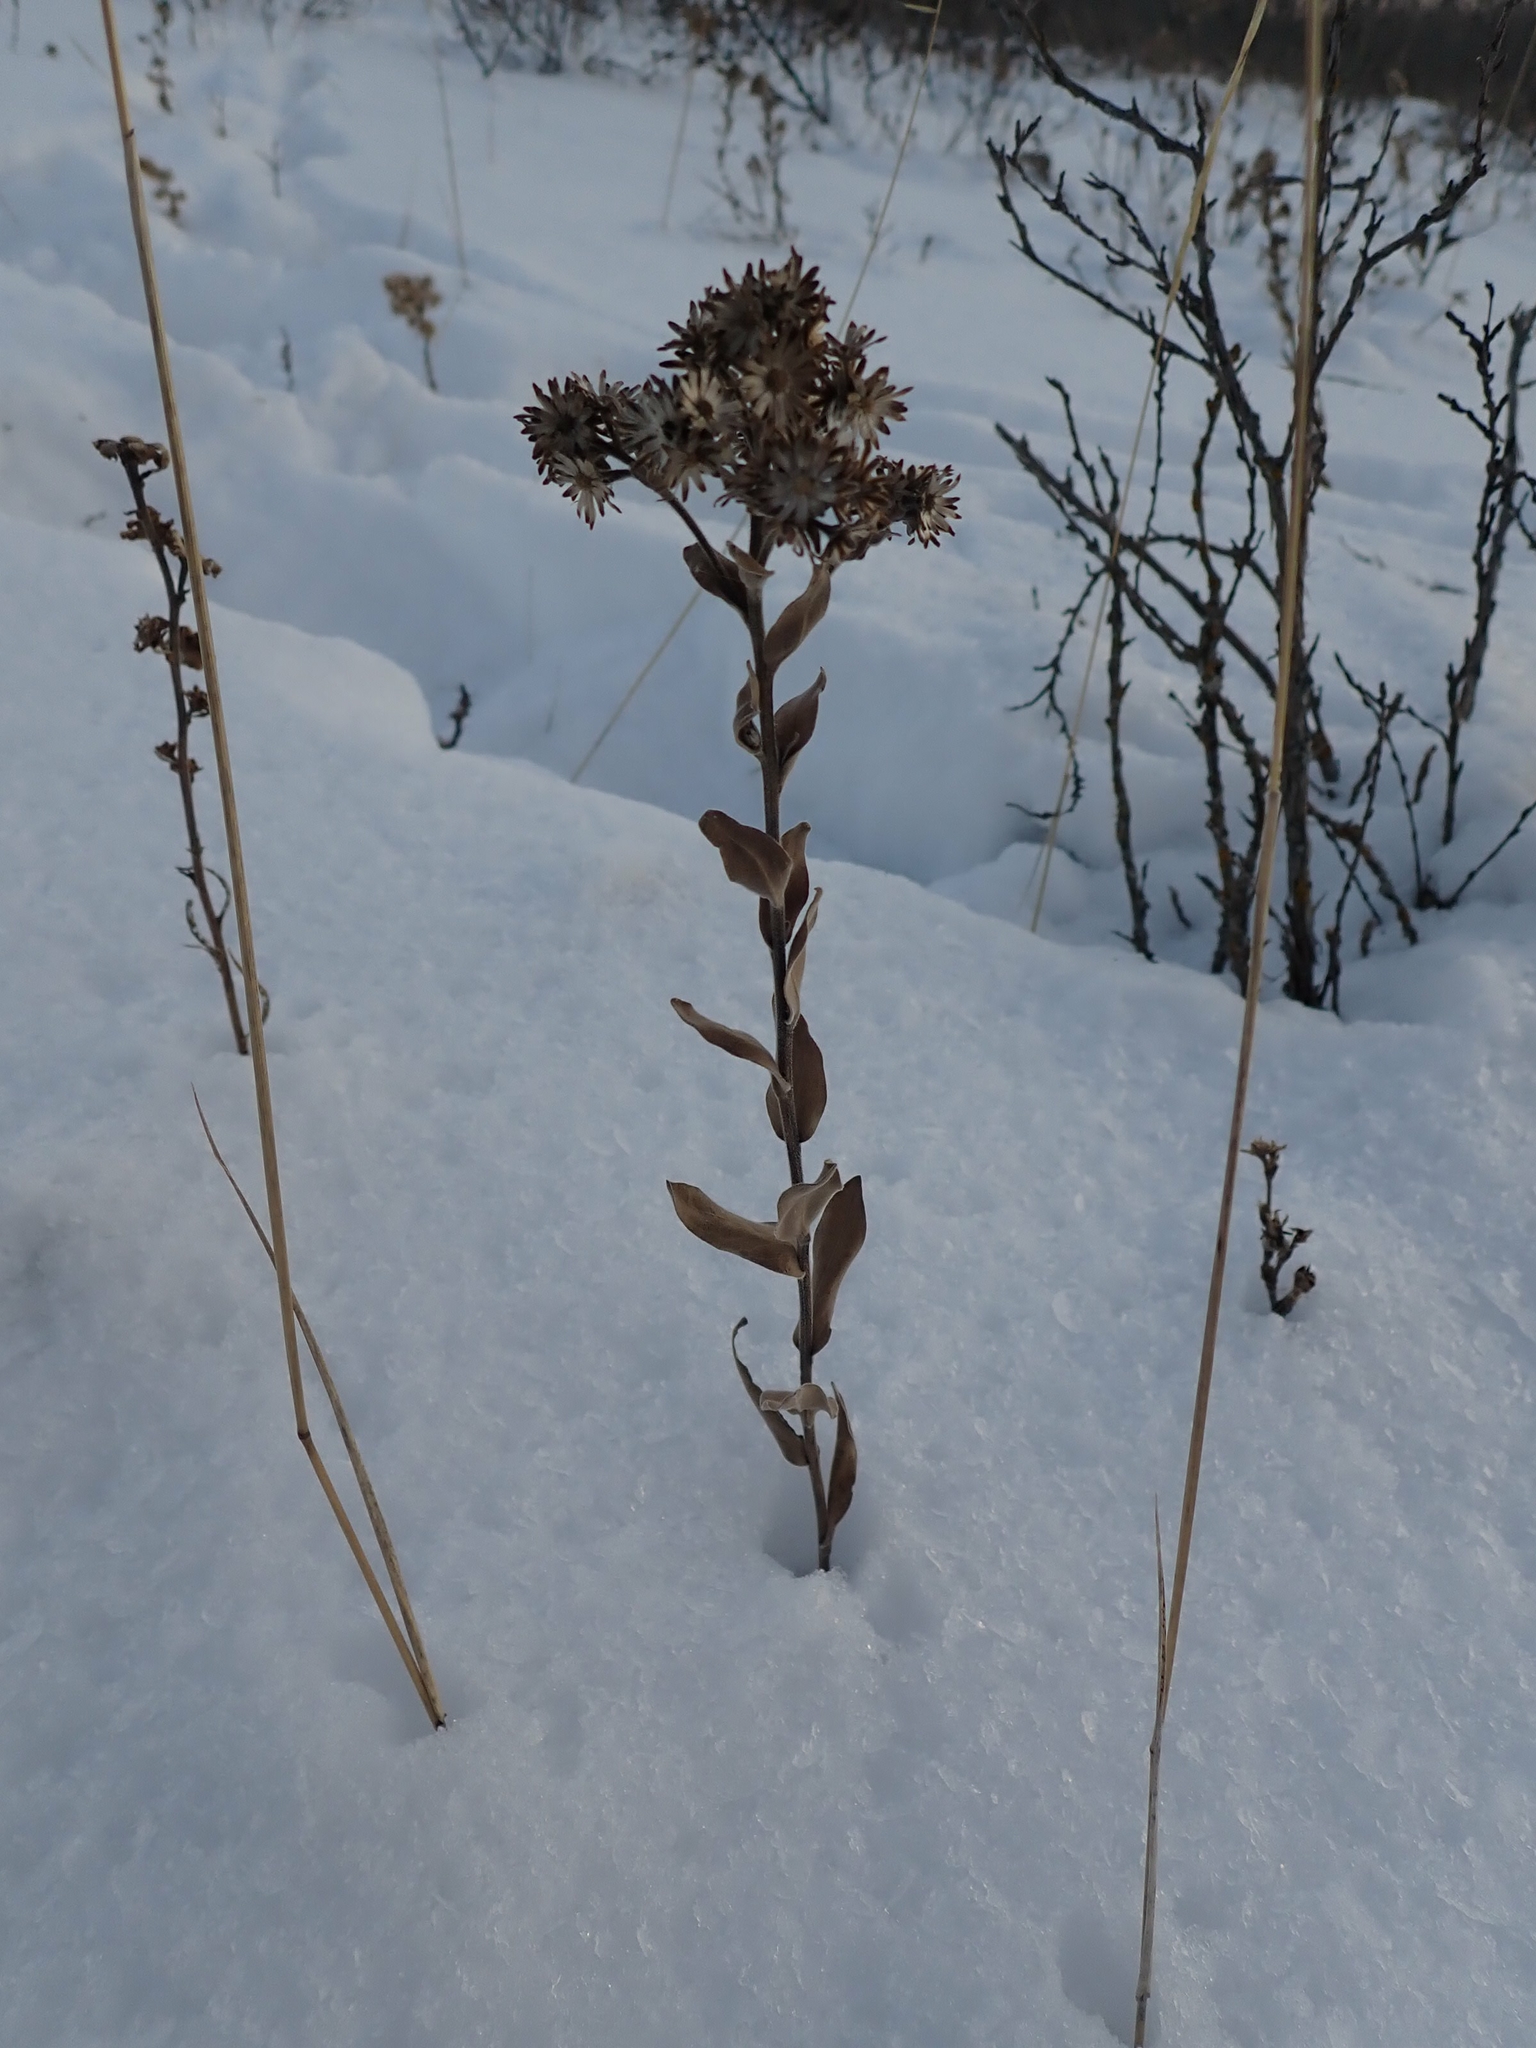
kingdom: Plantae
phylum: Tracheophyta
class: Magnoliopsida
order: Asterales
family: Asteraceae
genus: Solidago
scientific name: Solidago rigida
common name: Rigid goldenrod
